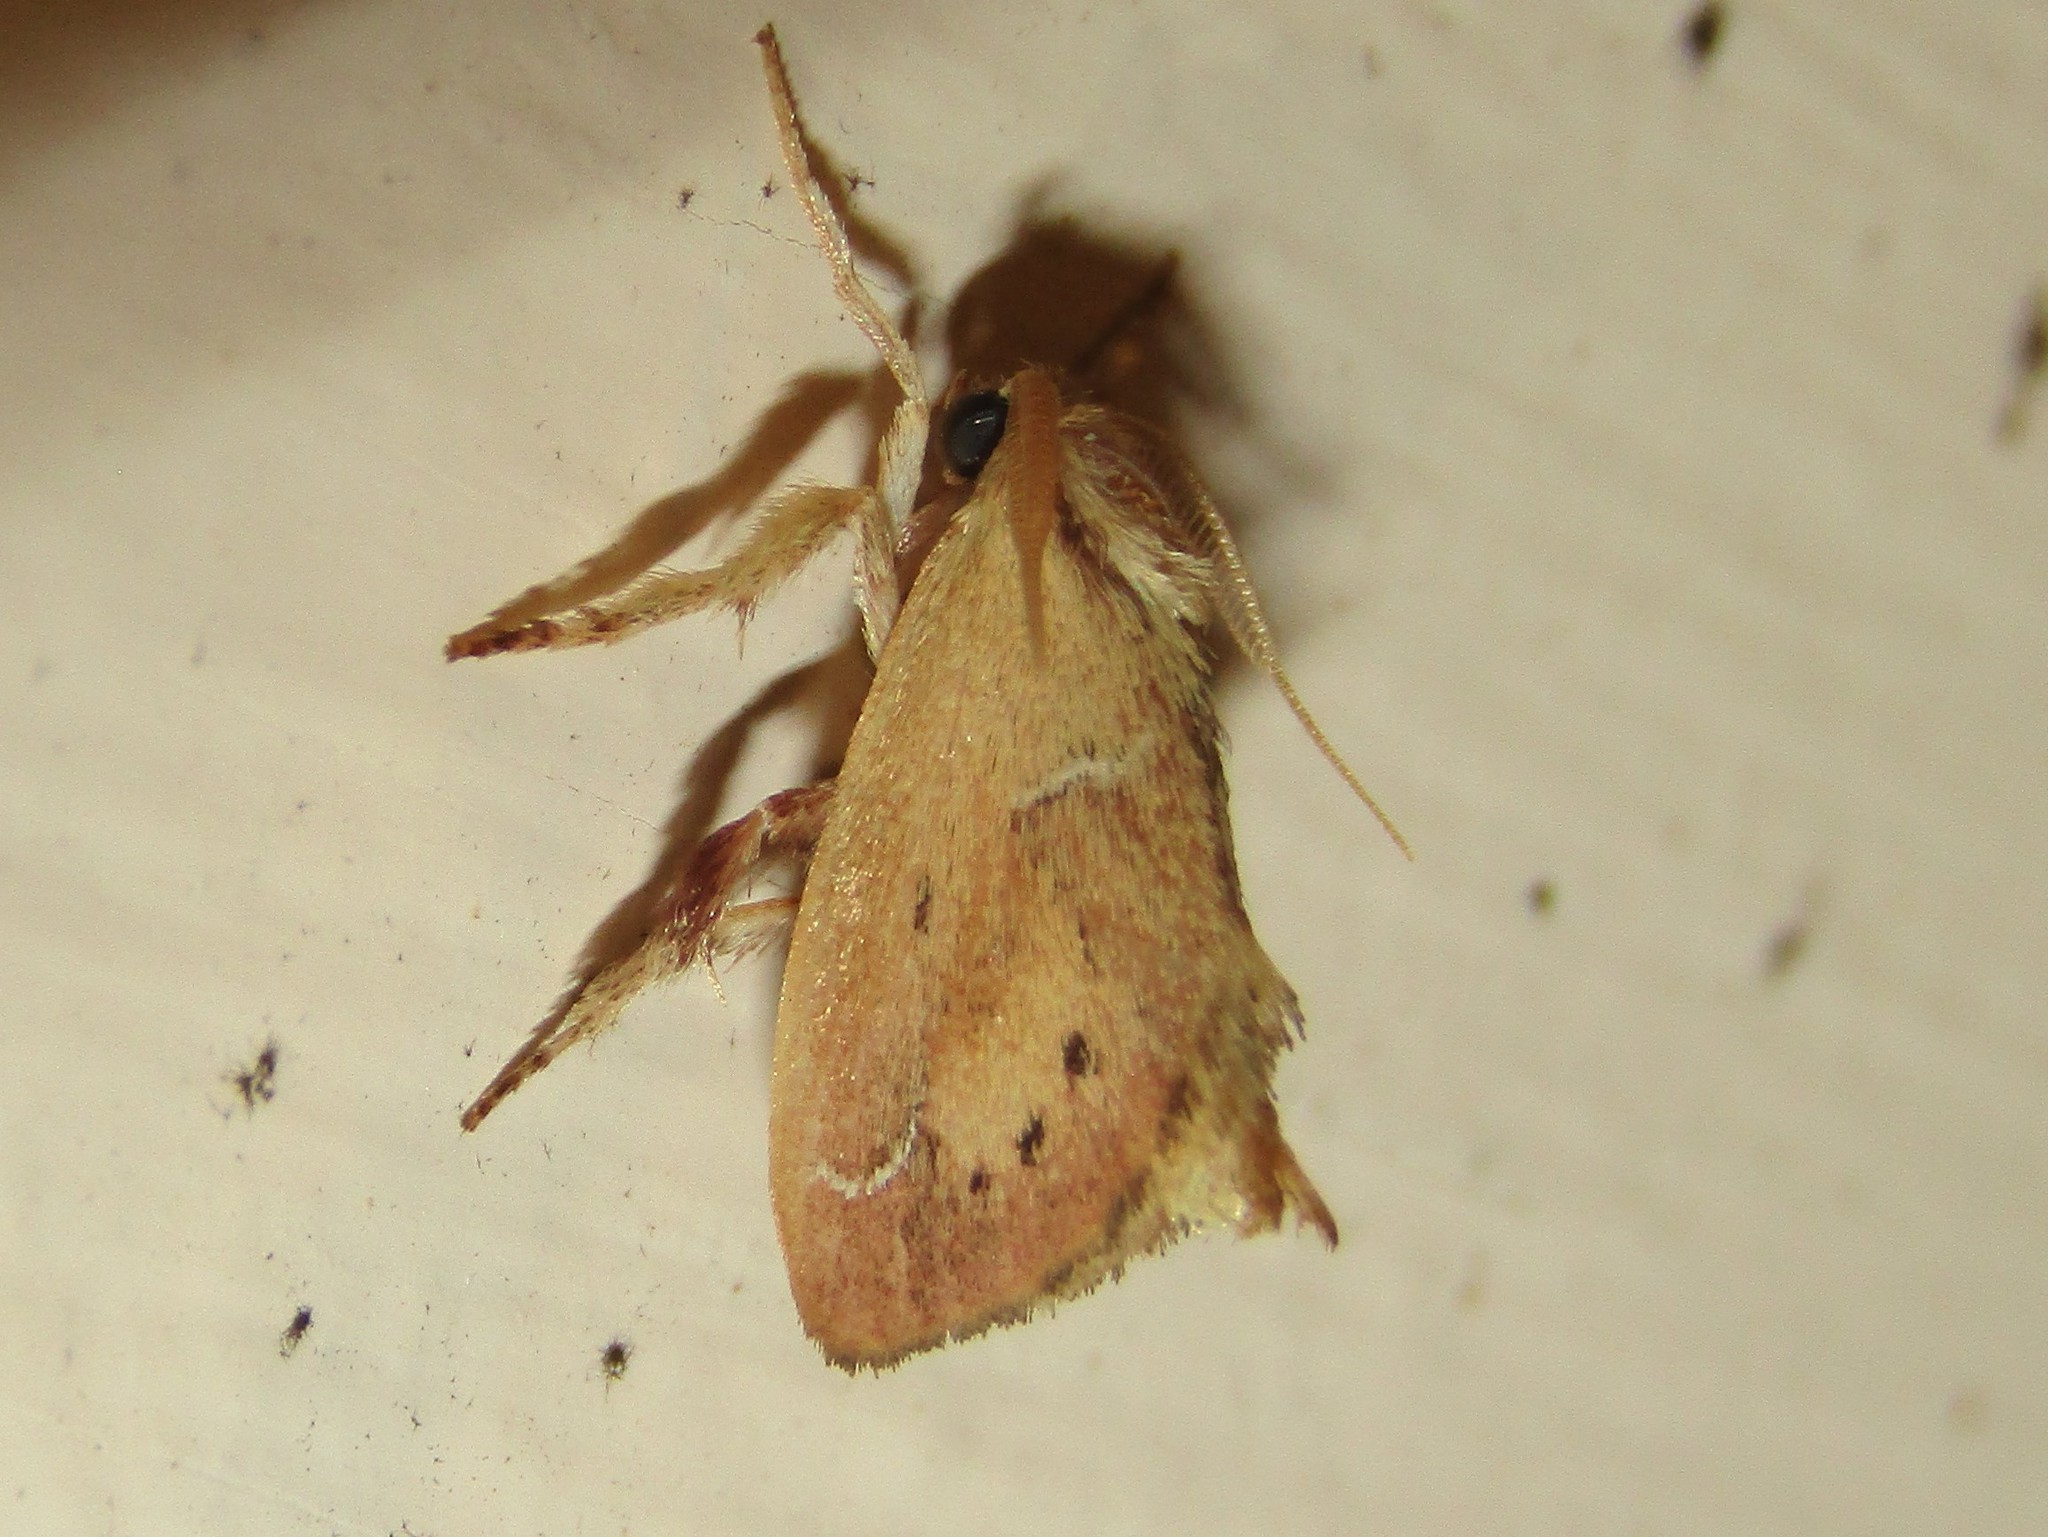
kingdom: Animalia
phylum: Arthropoda
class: Insecta
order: Lepidoptera
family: Limacodidae
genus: Adoneta
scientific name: Adoneta bicaudata
